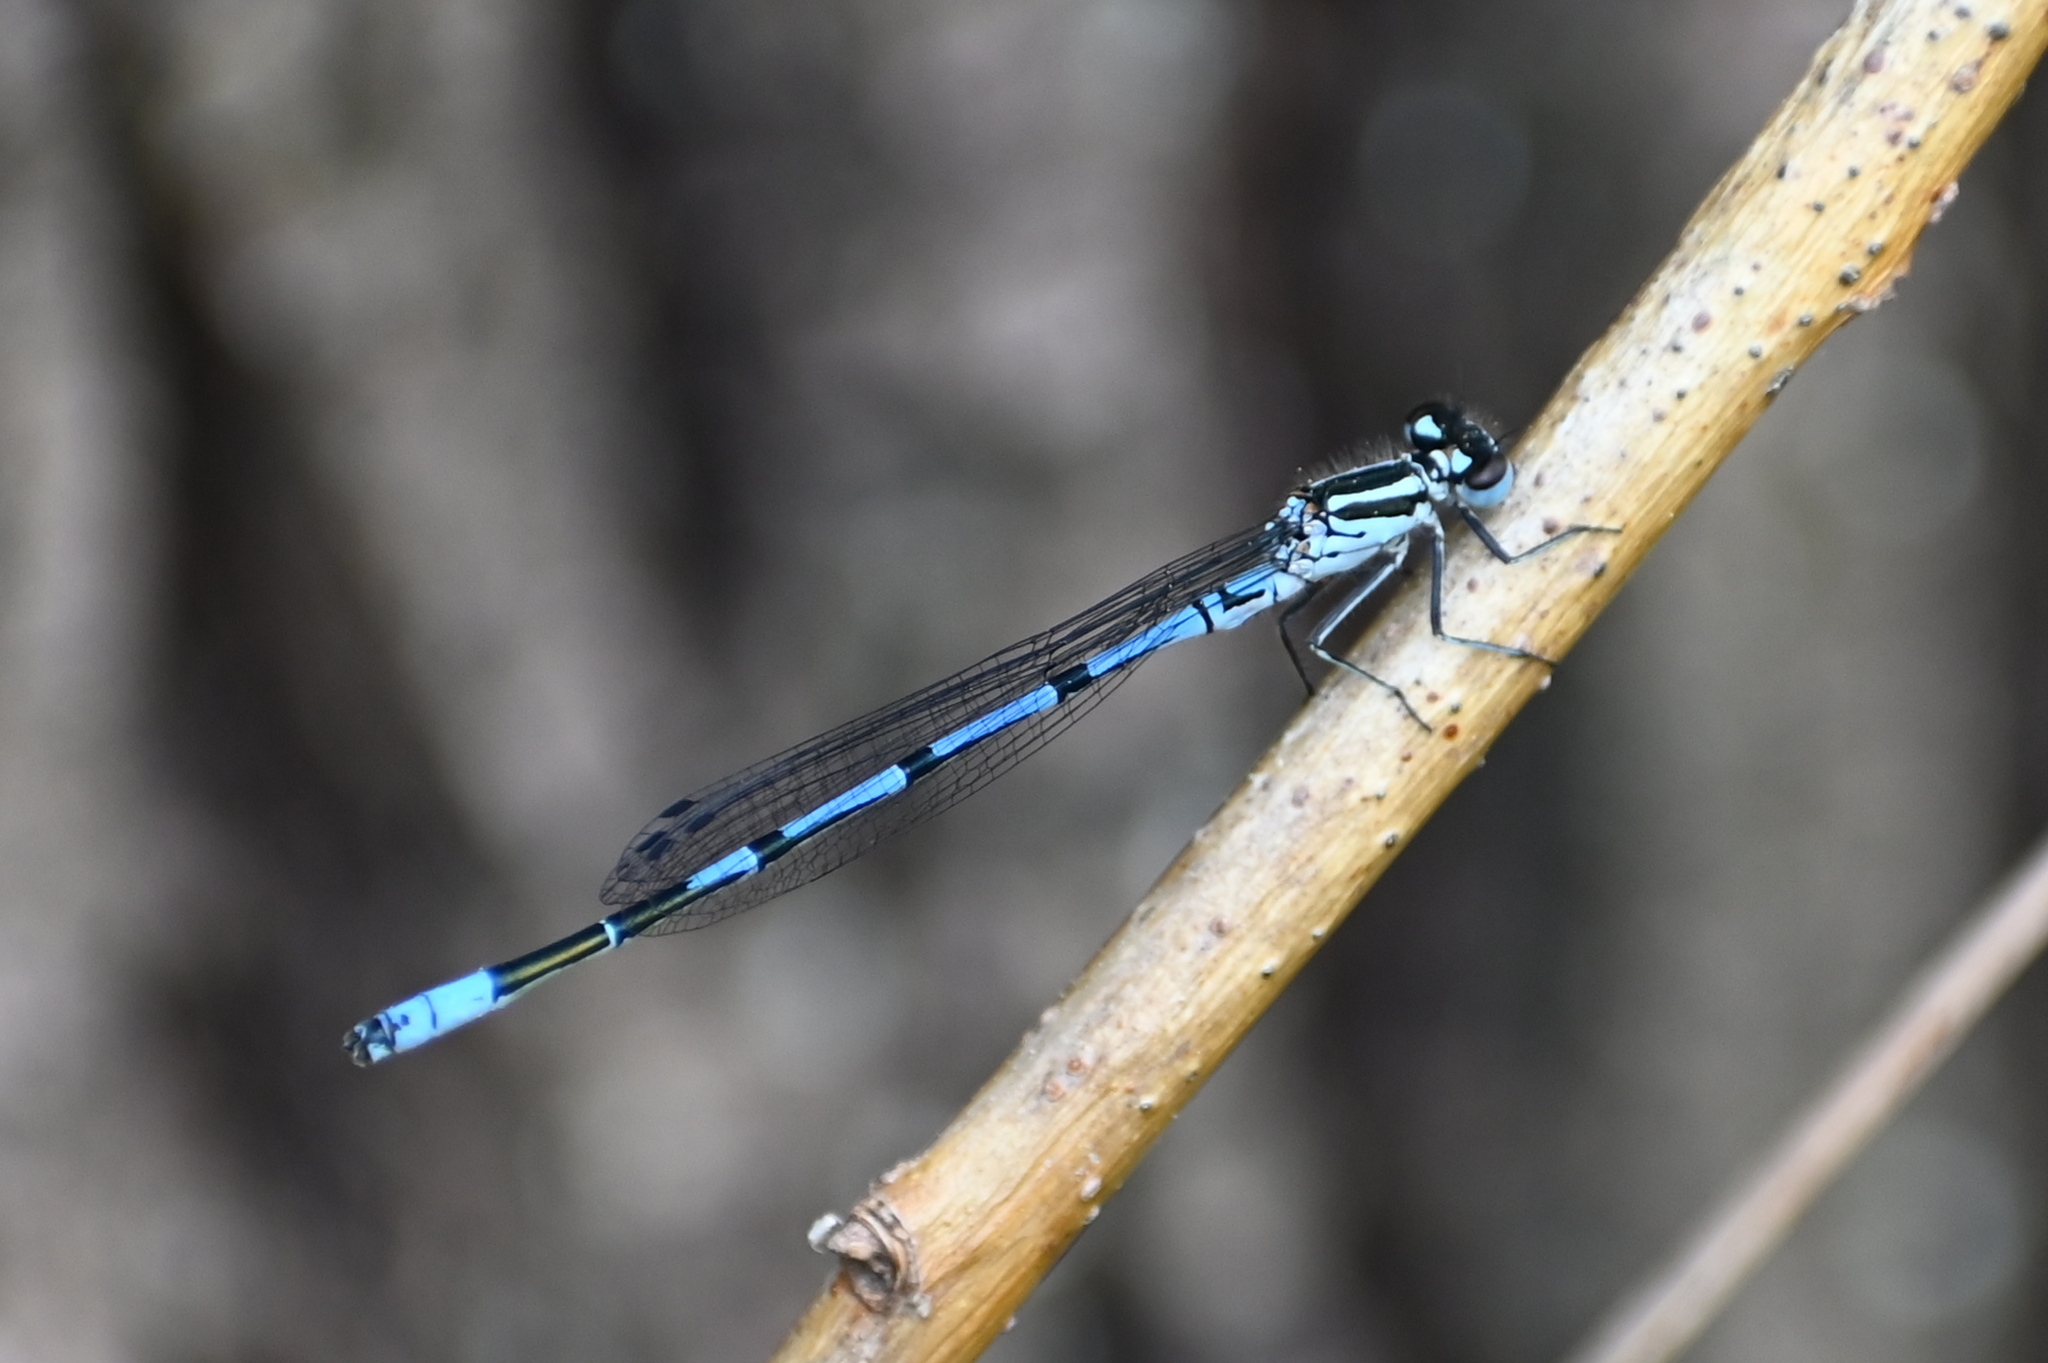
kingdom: Animalia
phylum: Arthropoda
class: Insecta
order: Odonata
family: Coenagrionidae
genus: Coenagrion
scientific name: Coenagrion puella
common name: Azure damselfly
